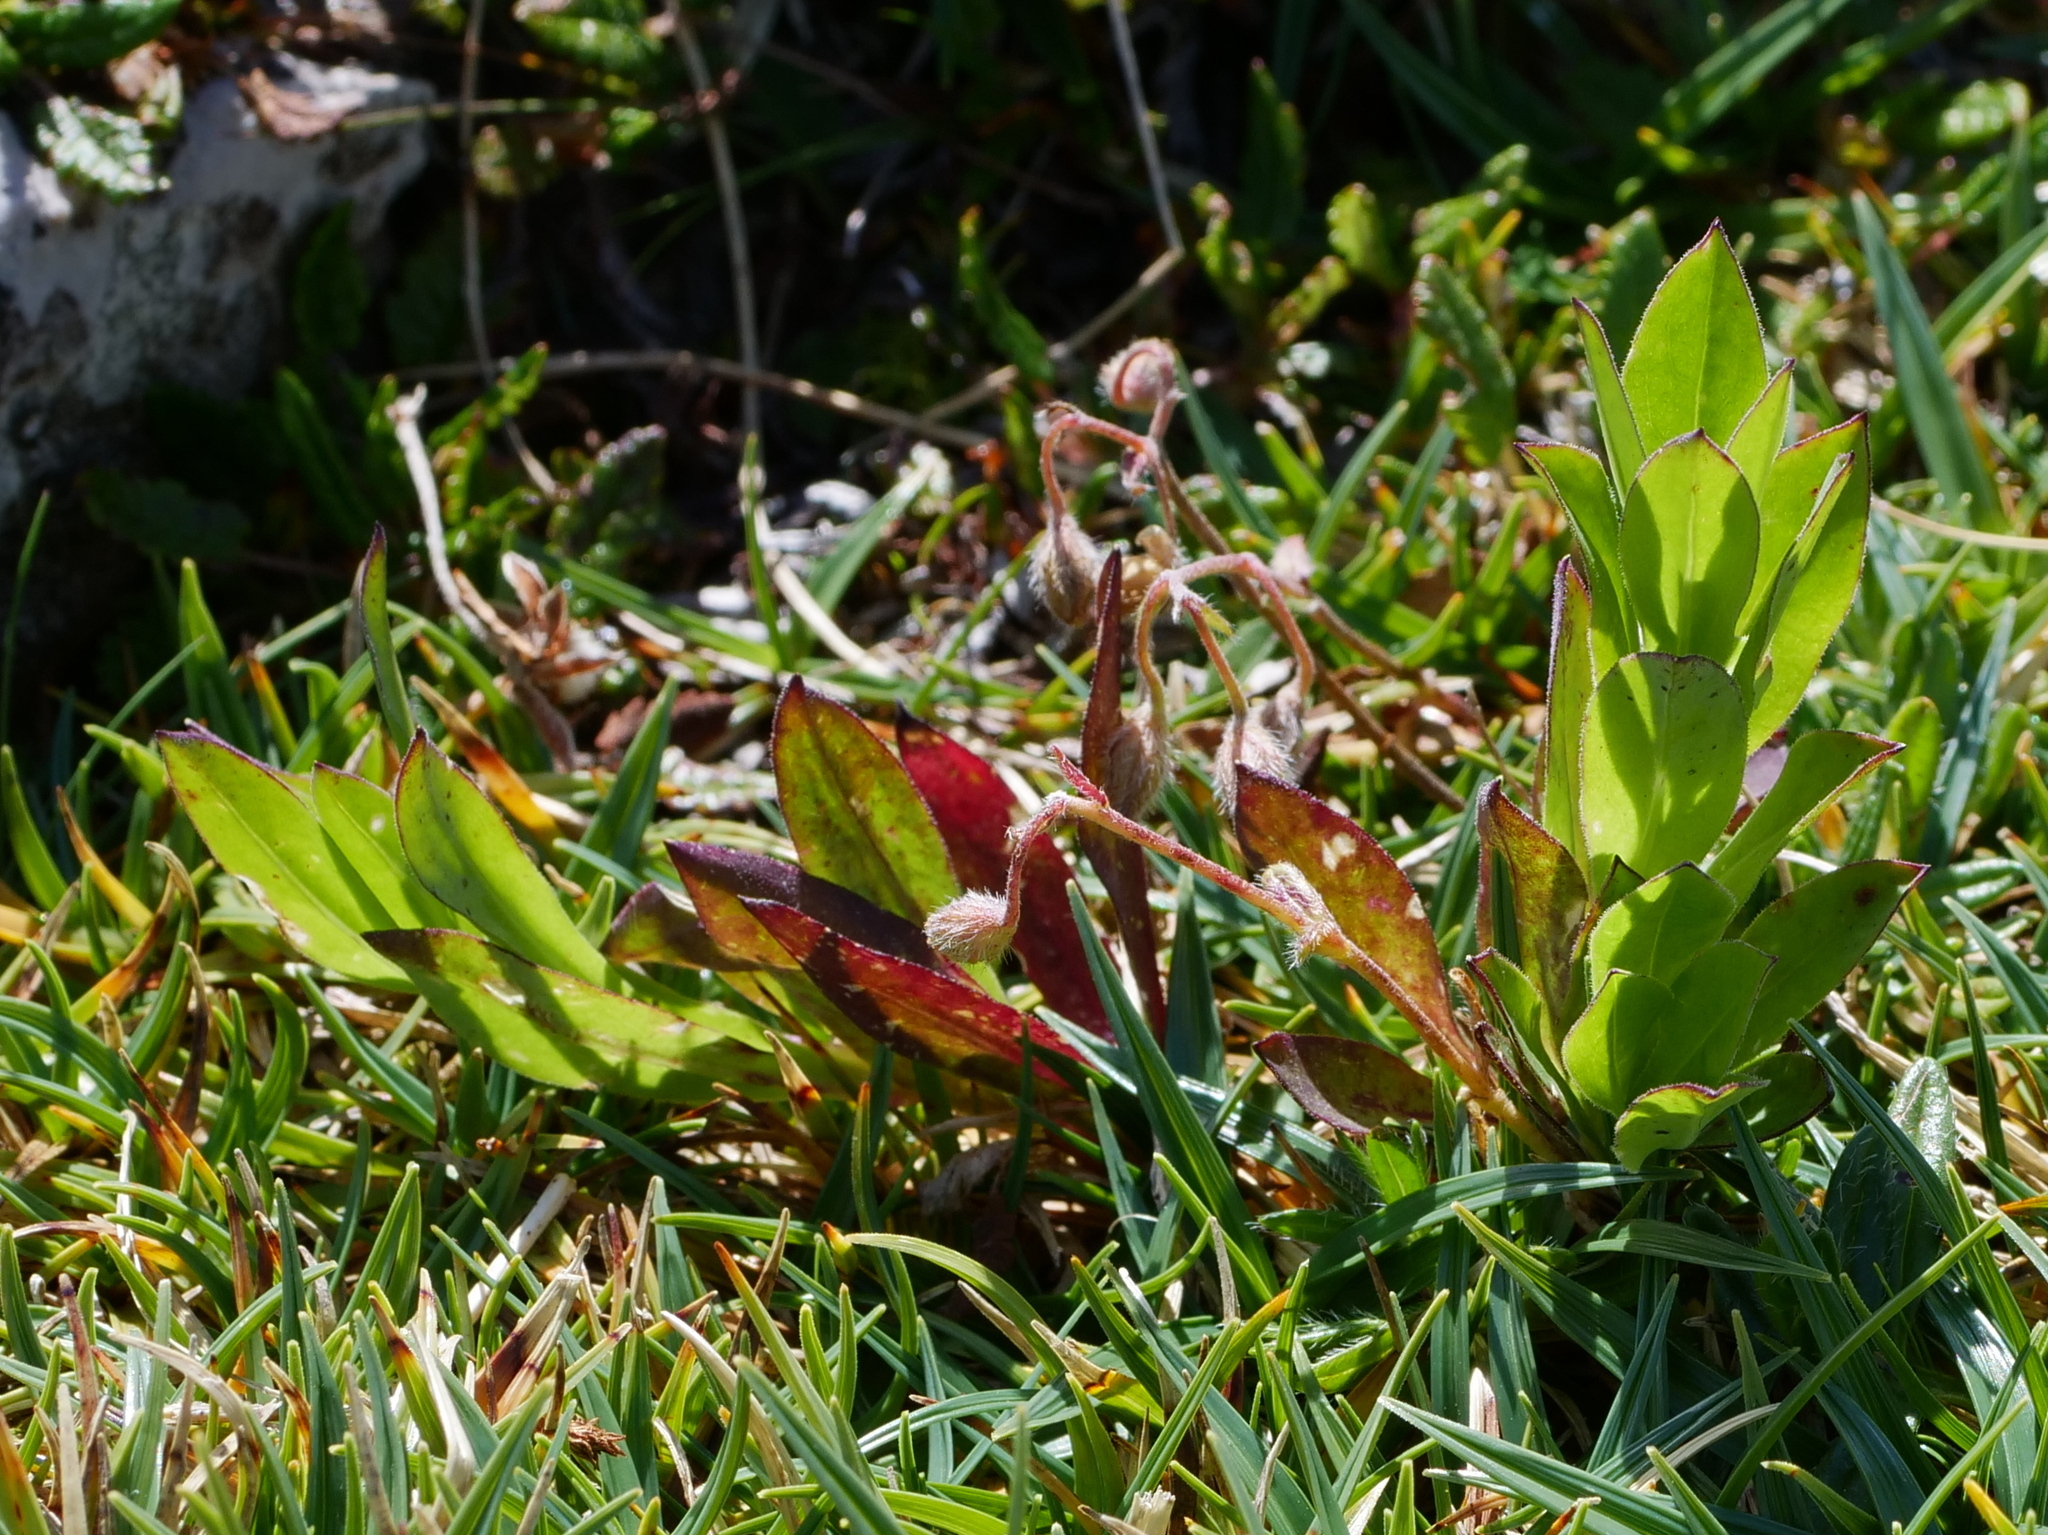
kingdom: Plantae
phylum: Tracheophyta
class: Magnoliopsida
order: Caryophyllales
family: Caryophyllaceae
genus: Silene
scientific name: Silene vulgaris
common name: Bladder campion
